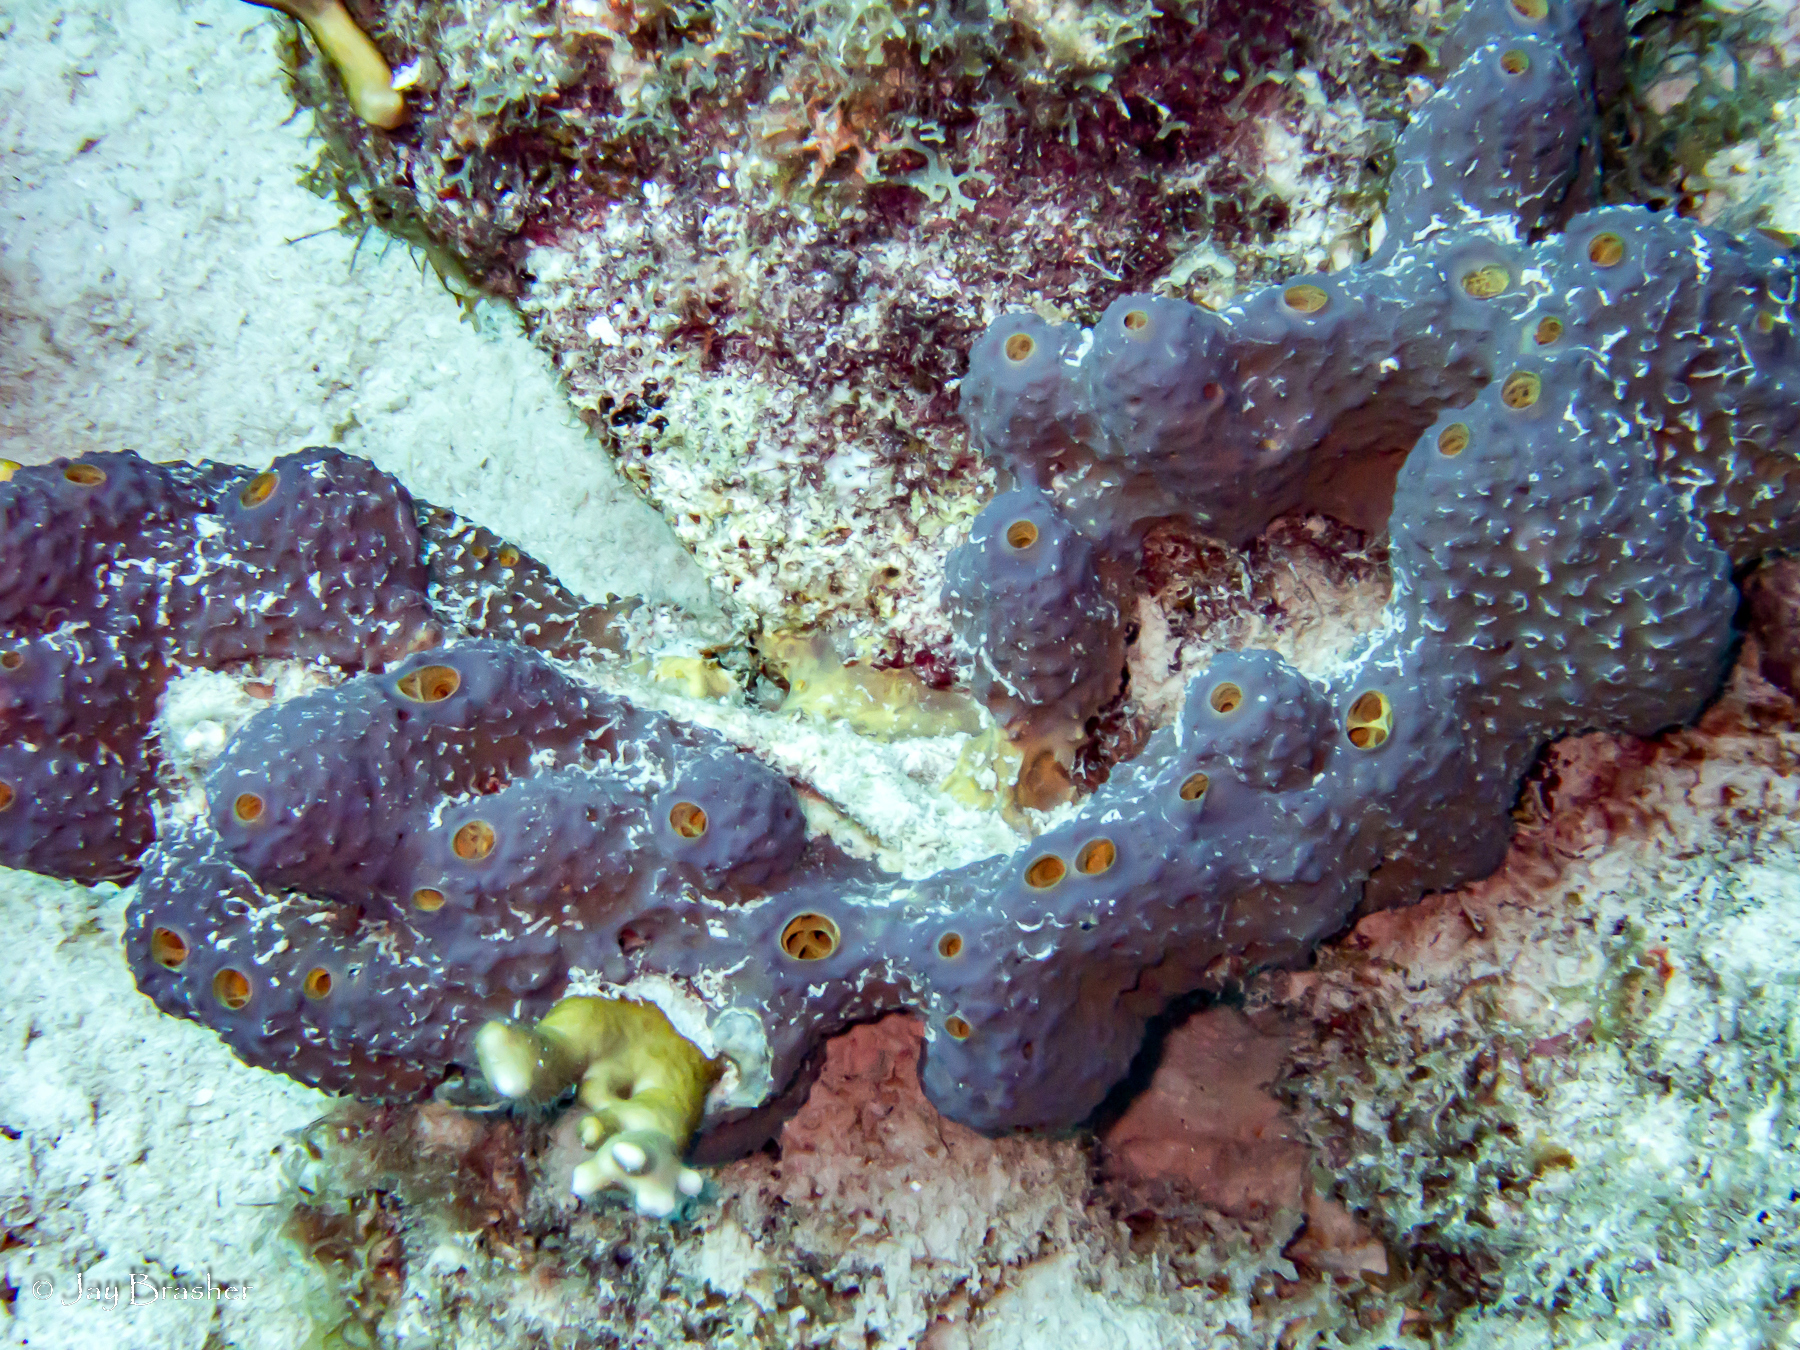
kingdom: Animalia
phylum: Porifera
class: Demospongiae
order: Verongiida
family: Aplysinidae
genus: Aiolochroia
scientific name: Aiolochroia crassa
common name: Branching tube sponge
